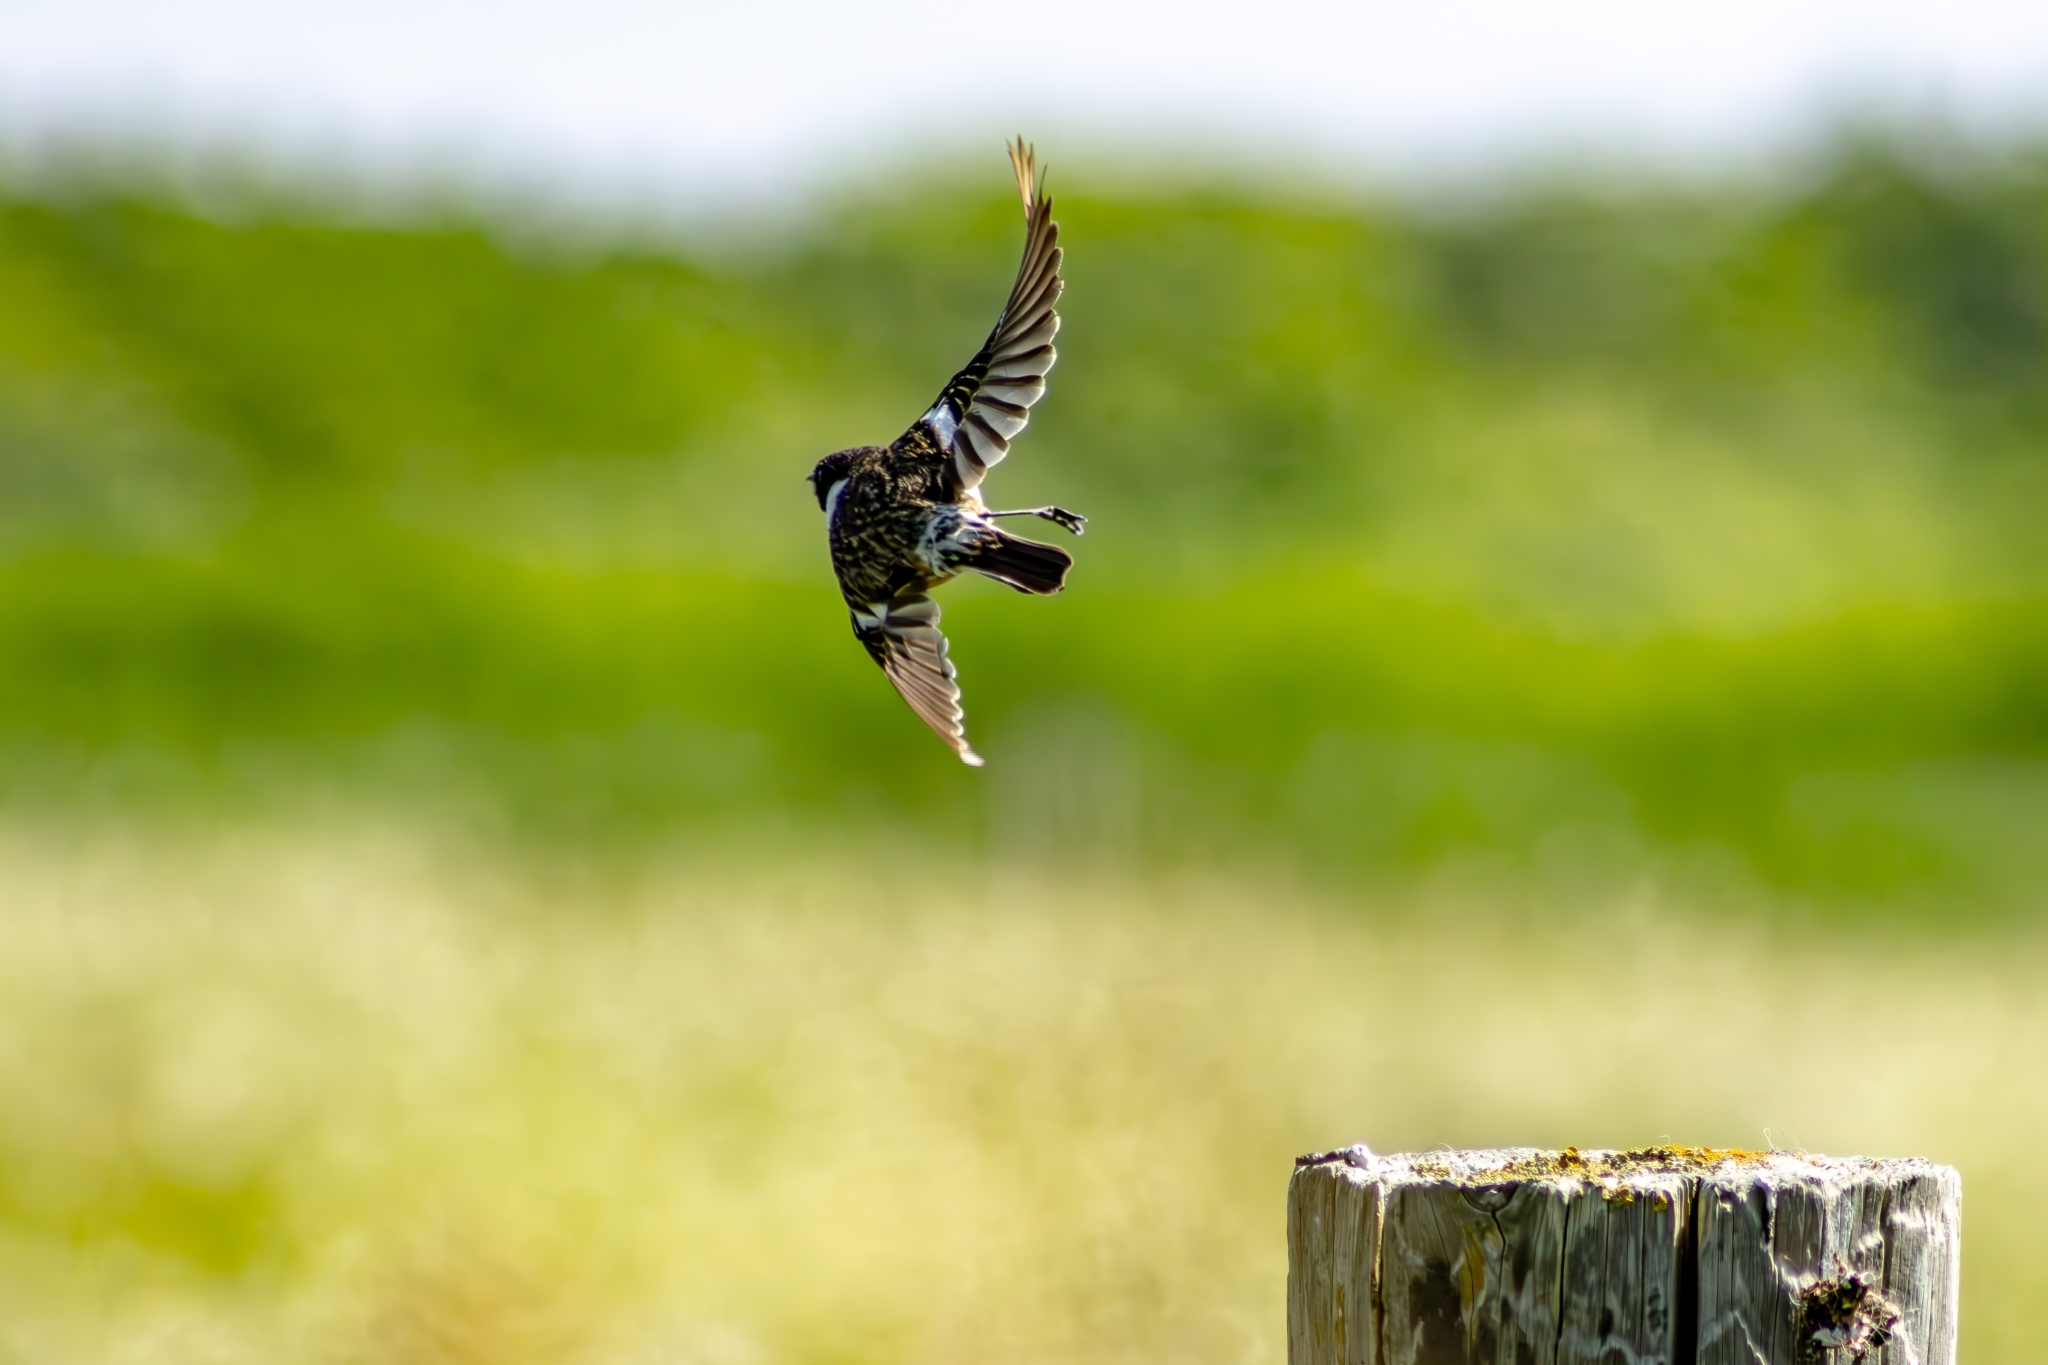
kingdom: Animalia
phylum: Chordata
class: Aves
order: Passeriformes
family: Muscicapidae
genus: Saxicola
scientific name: Saxicola rubicola
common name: European stonechat
